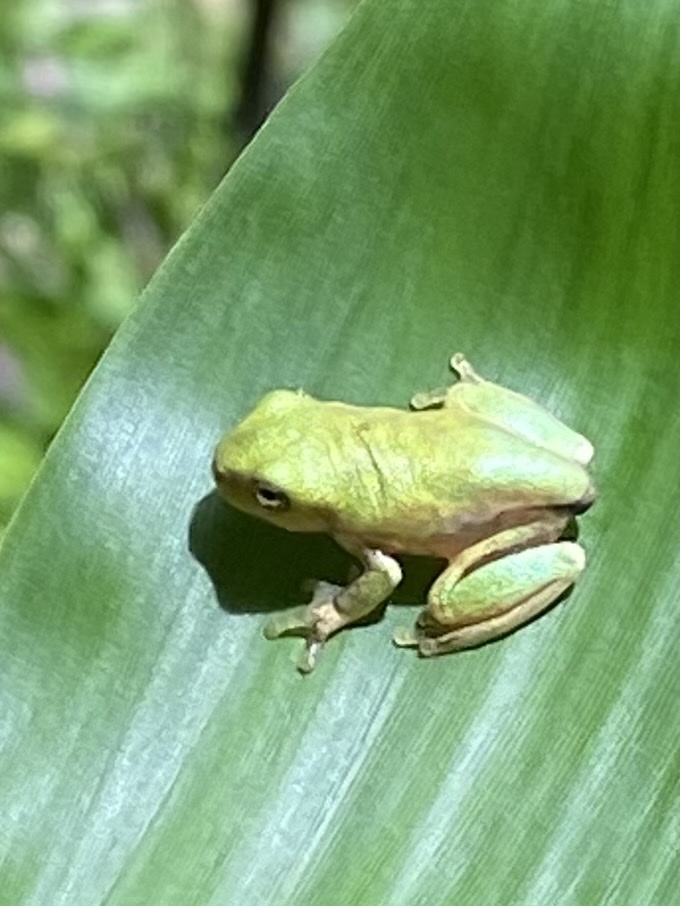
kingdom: Animalia
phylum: Chordata
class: Amphibia
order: Anura
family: Hylidae
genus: Rheohyla
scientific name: Rheohyla miotympanum
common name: Small-eard hyla
